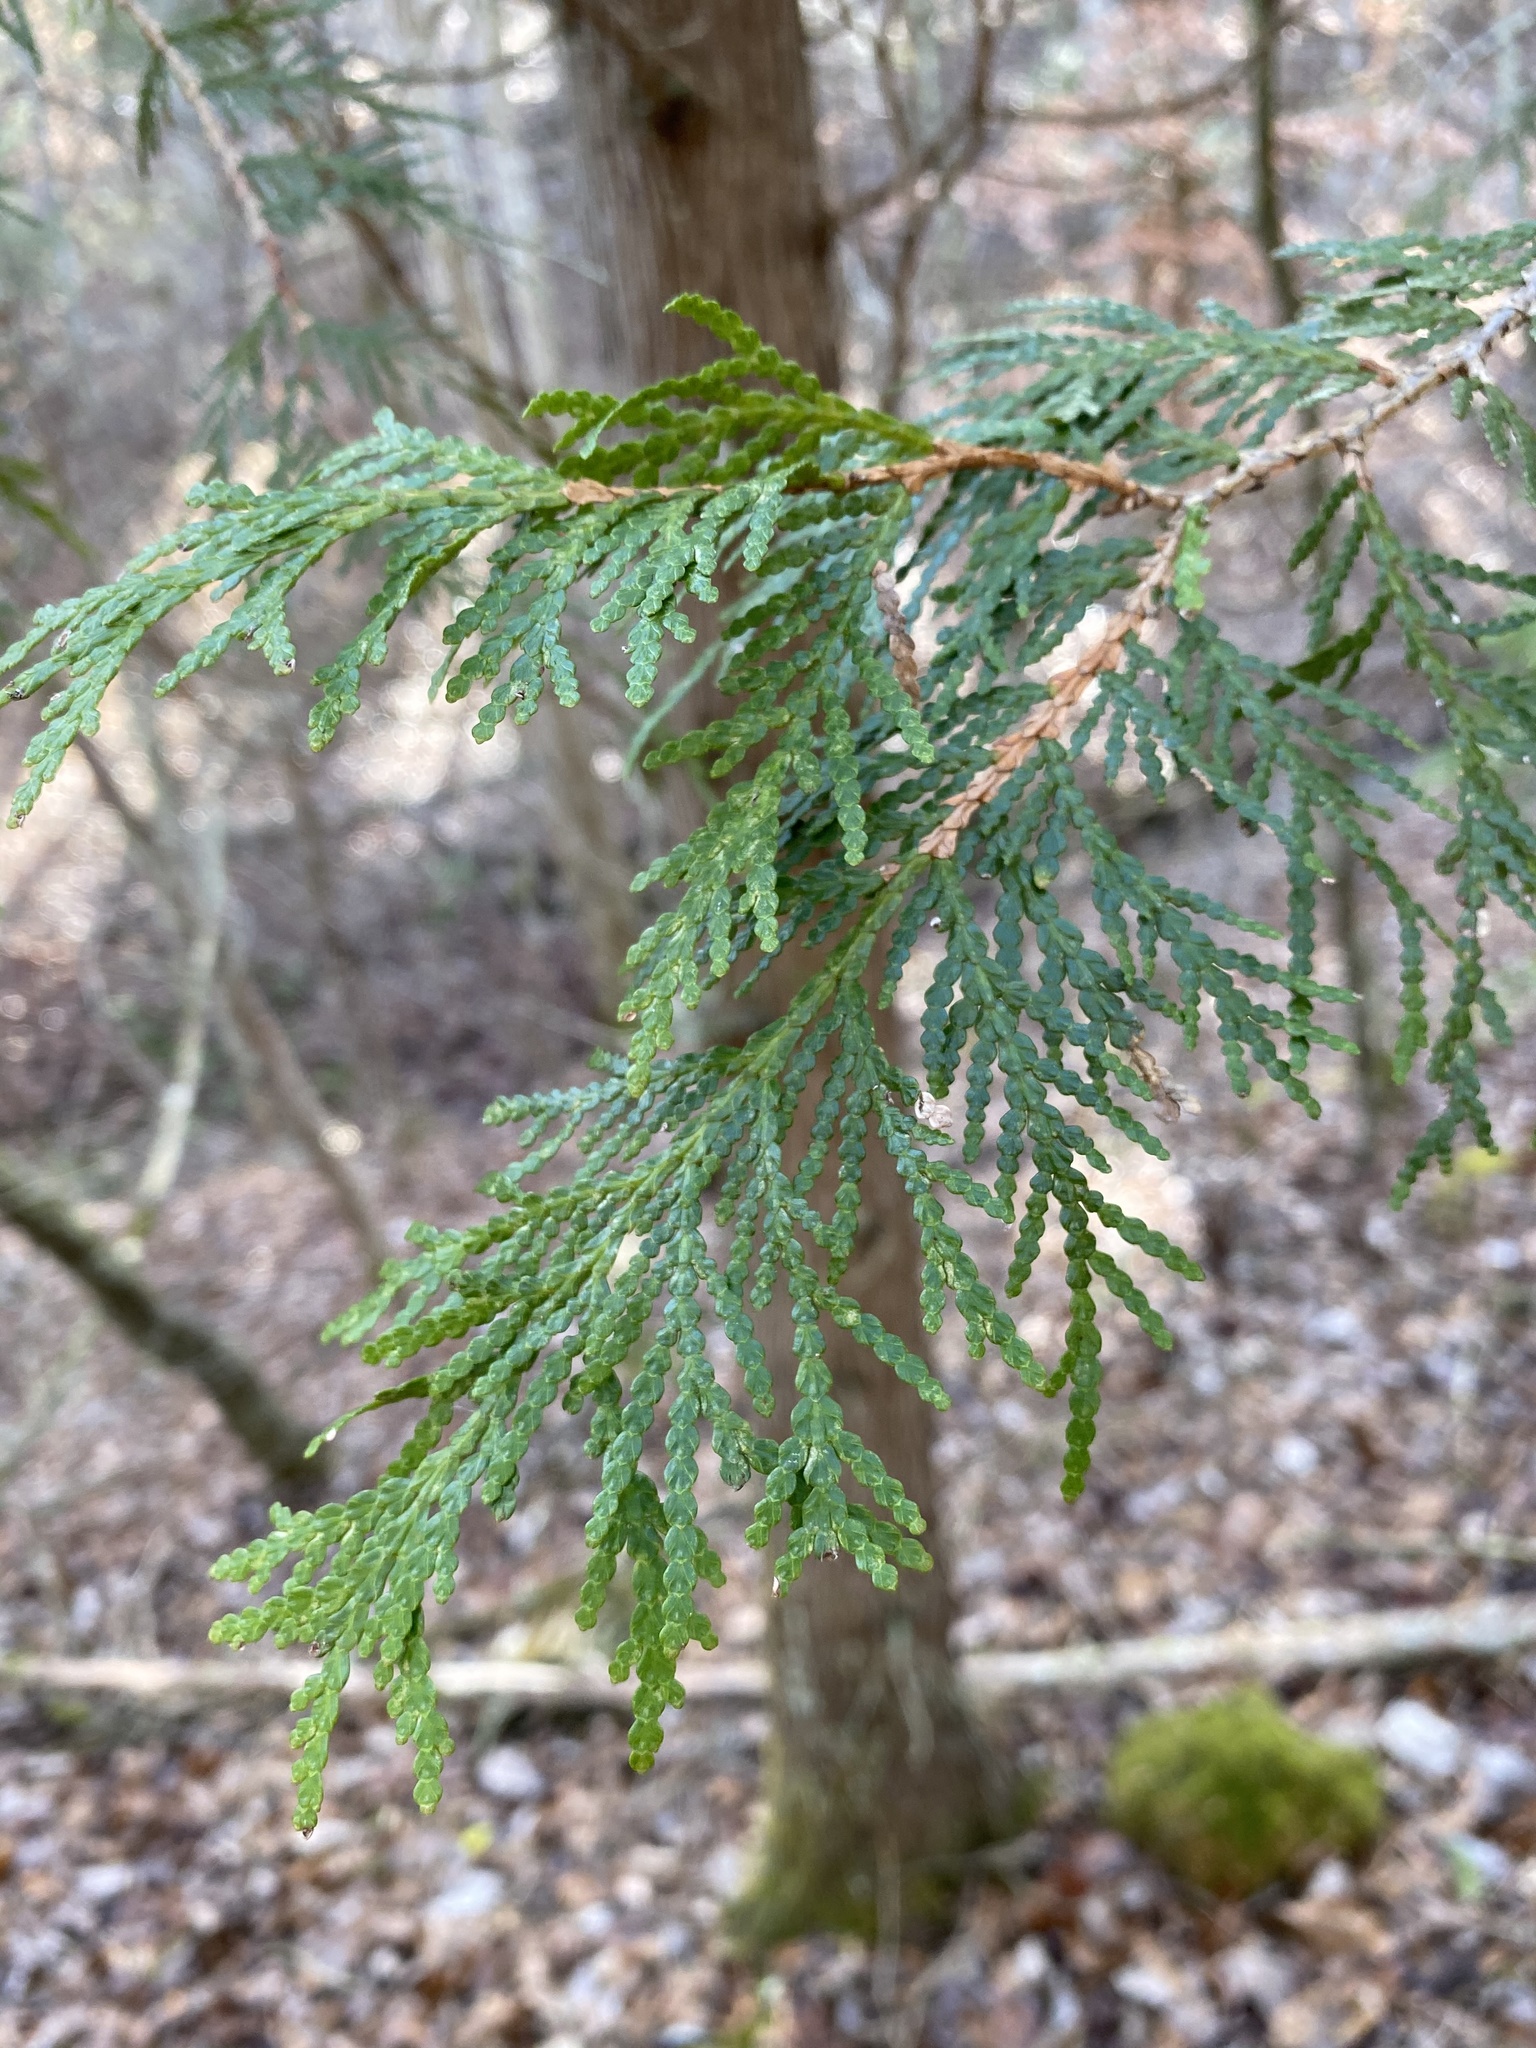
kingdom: Plantae
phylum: Tracheophyta
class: Pinopsida
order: Pinales
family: Cupressaceae
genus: Thuja
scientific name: Thuja occidentalis
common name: Northern white-cedar
